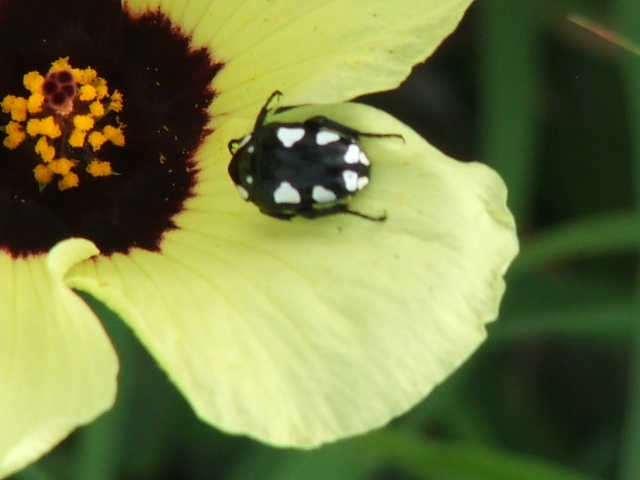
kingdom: Animalia
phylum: Arthropoda
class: Insecta
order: Coleoptera
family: Scarabaeidae
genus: Mausoleopsis
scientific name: Mausoleopsis amabilis
